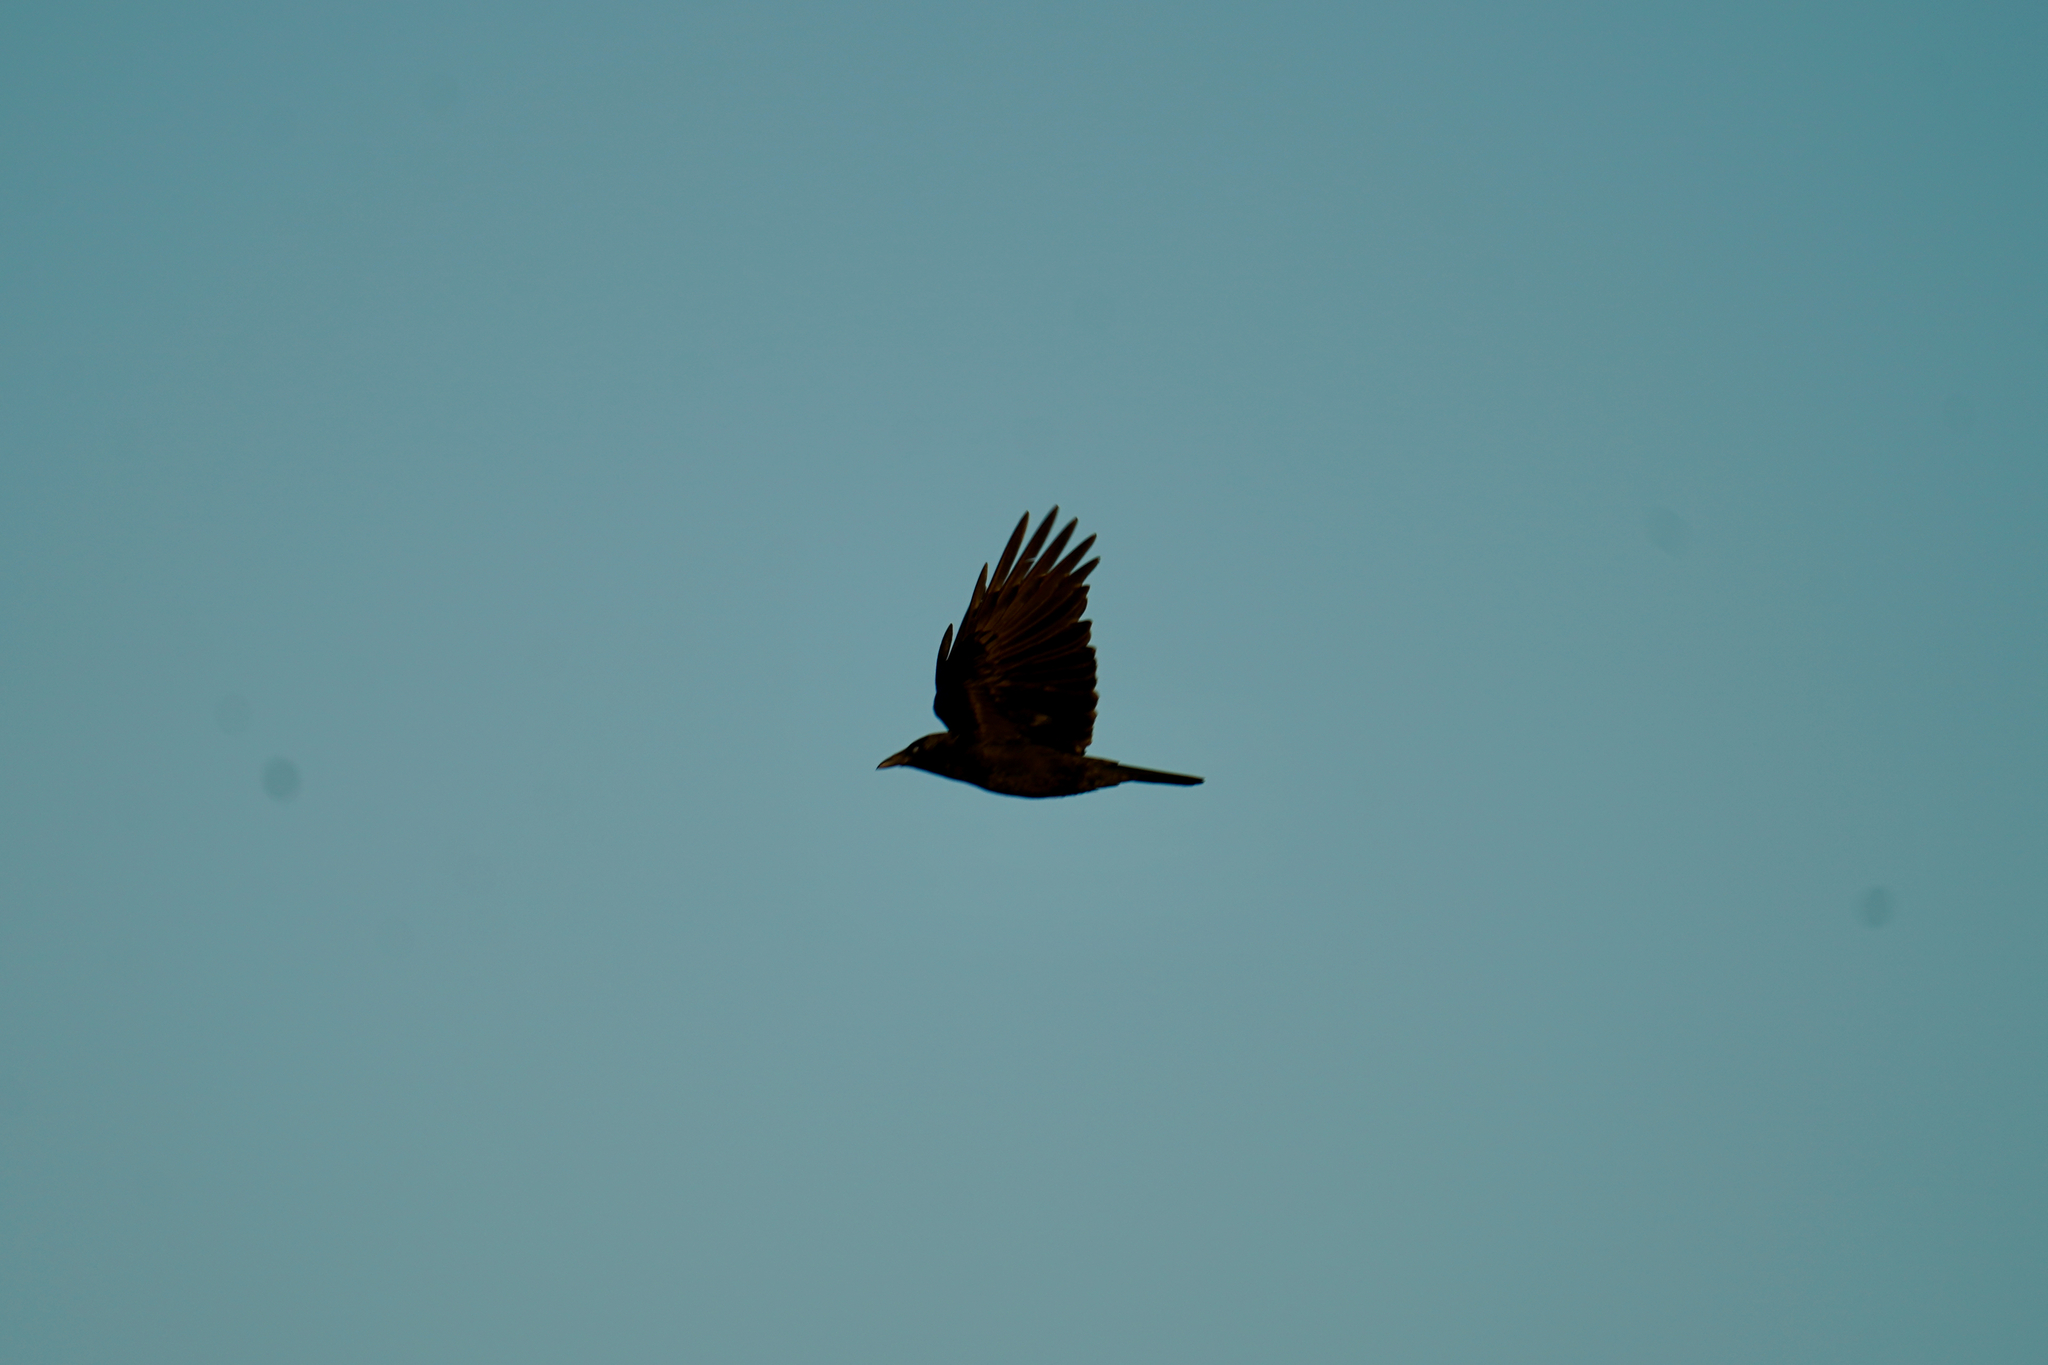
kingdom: Animalia
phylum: Chordata
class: Aves
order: Passeriformes
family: Corvidae
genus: Corvus
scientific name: Corvus brachyrhynchos
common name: American crow
